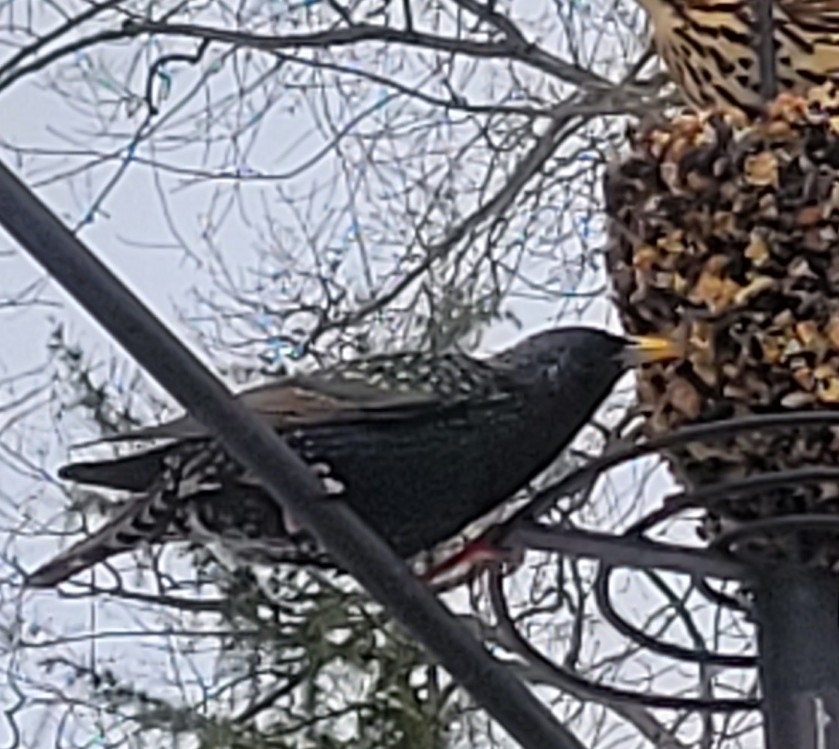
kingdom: Animalia
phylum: Chordata
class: Aves
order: Passeriformes
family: Sturnidae
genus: Sturnus
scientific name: Sturnus vulgaris
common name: Common starling
